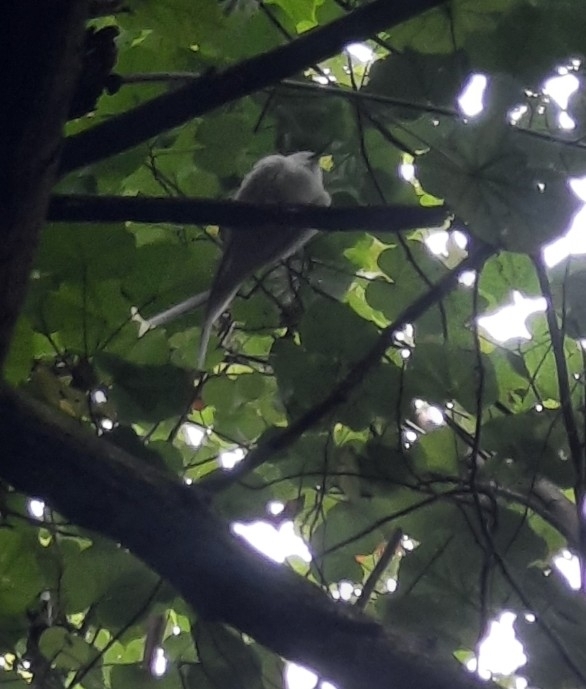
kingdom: Animalia
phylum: Chordata
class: Aves
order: Charadriiformes
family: Laridae
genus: Gygis
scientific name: Gygis alba
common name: White tern
